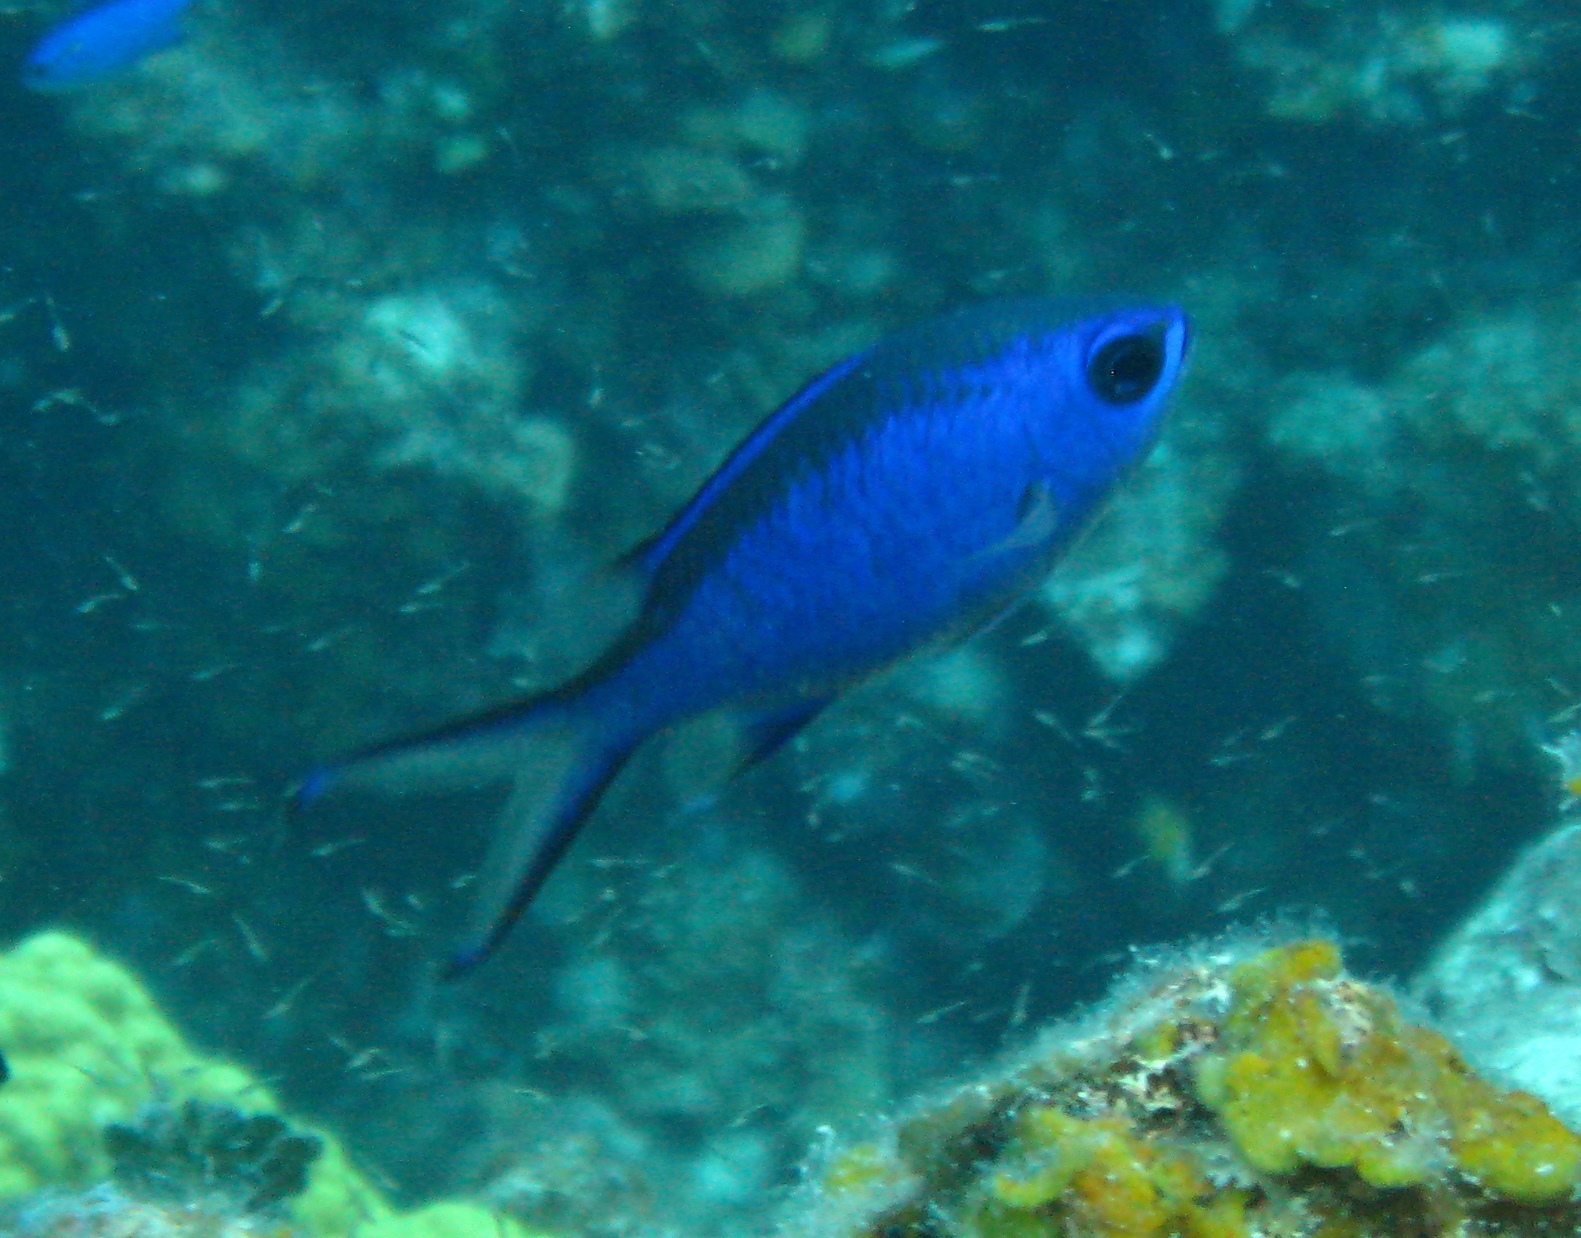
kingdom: Animalia
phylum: Chordata
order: Perciformes
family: Pomacentridae
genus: Chromis
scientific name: Chromis cyanea
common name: Blue chromis
